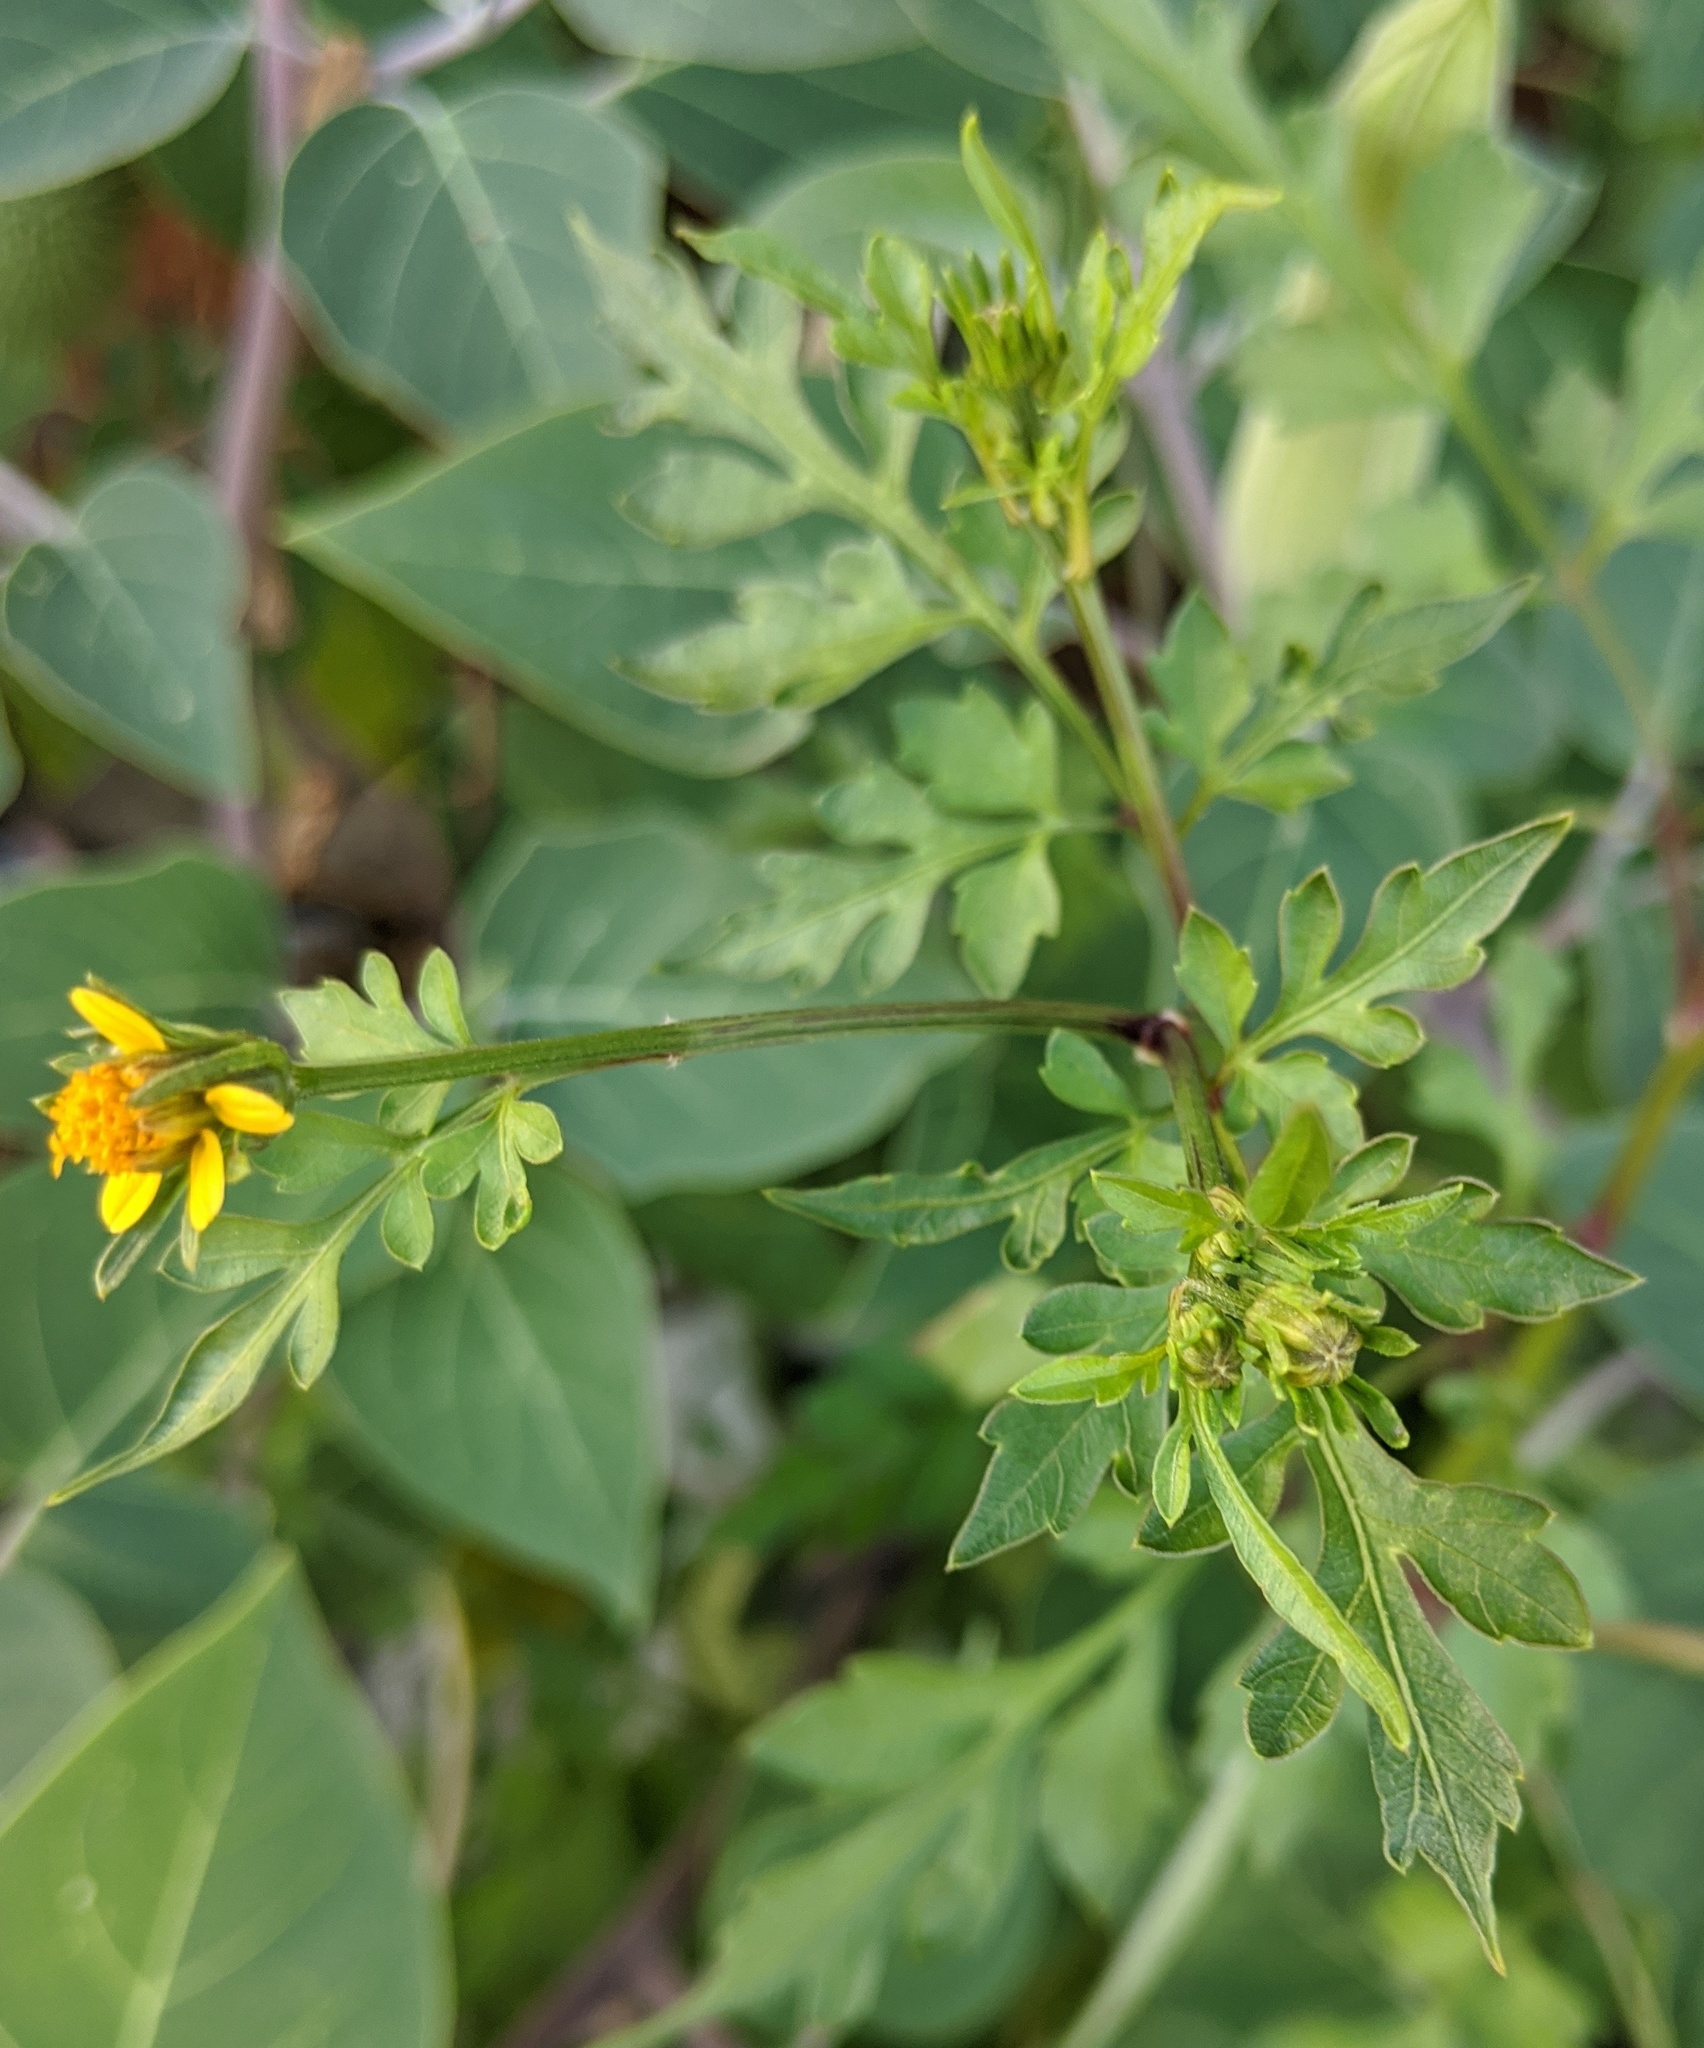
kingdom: Plantae
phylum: Tracheophyta
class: Magnoliopsida
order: Asterales
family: Asteraceae
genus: Bidens
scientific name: Bidens bipinnata
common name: Spanish-needles
